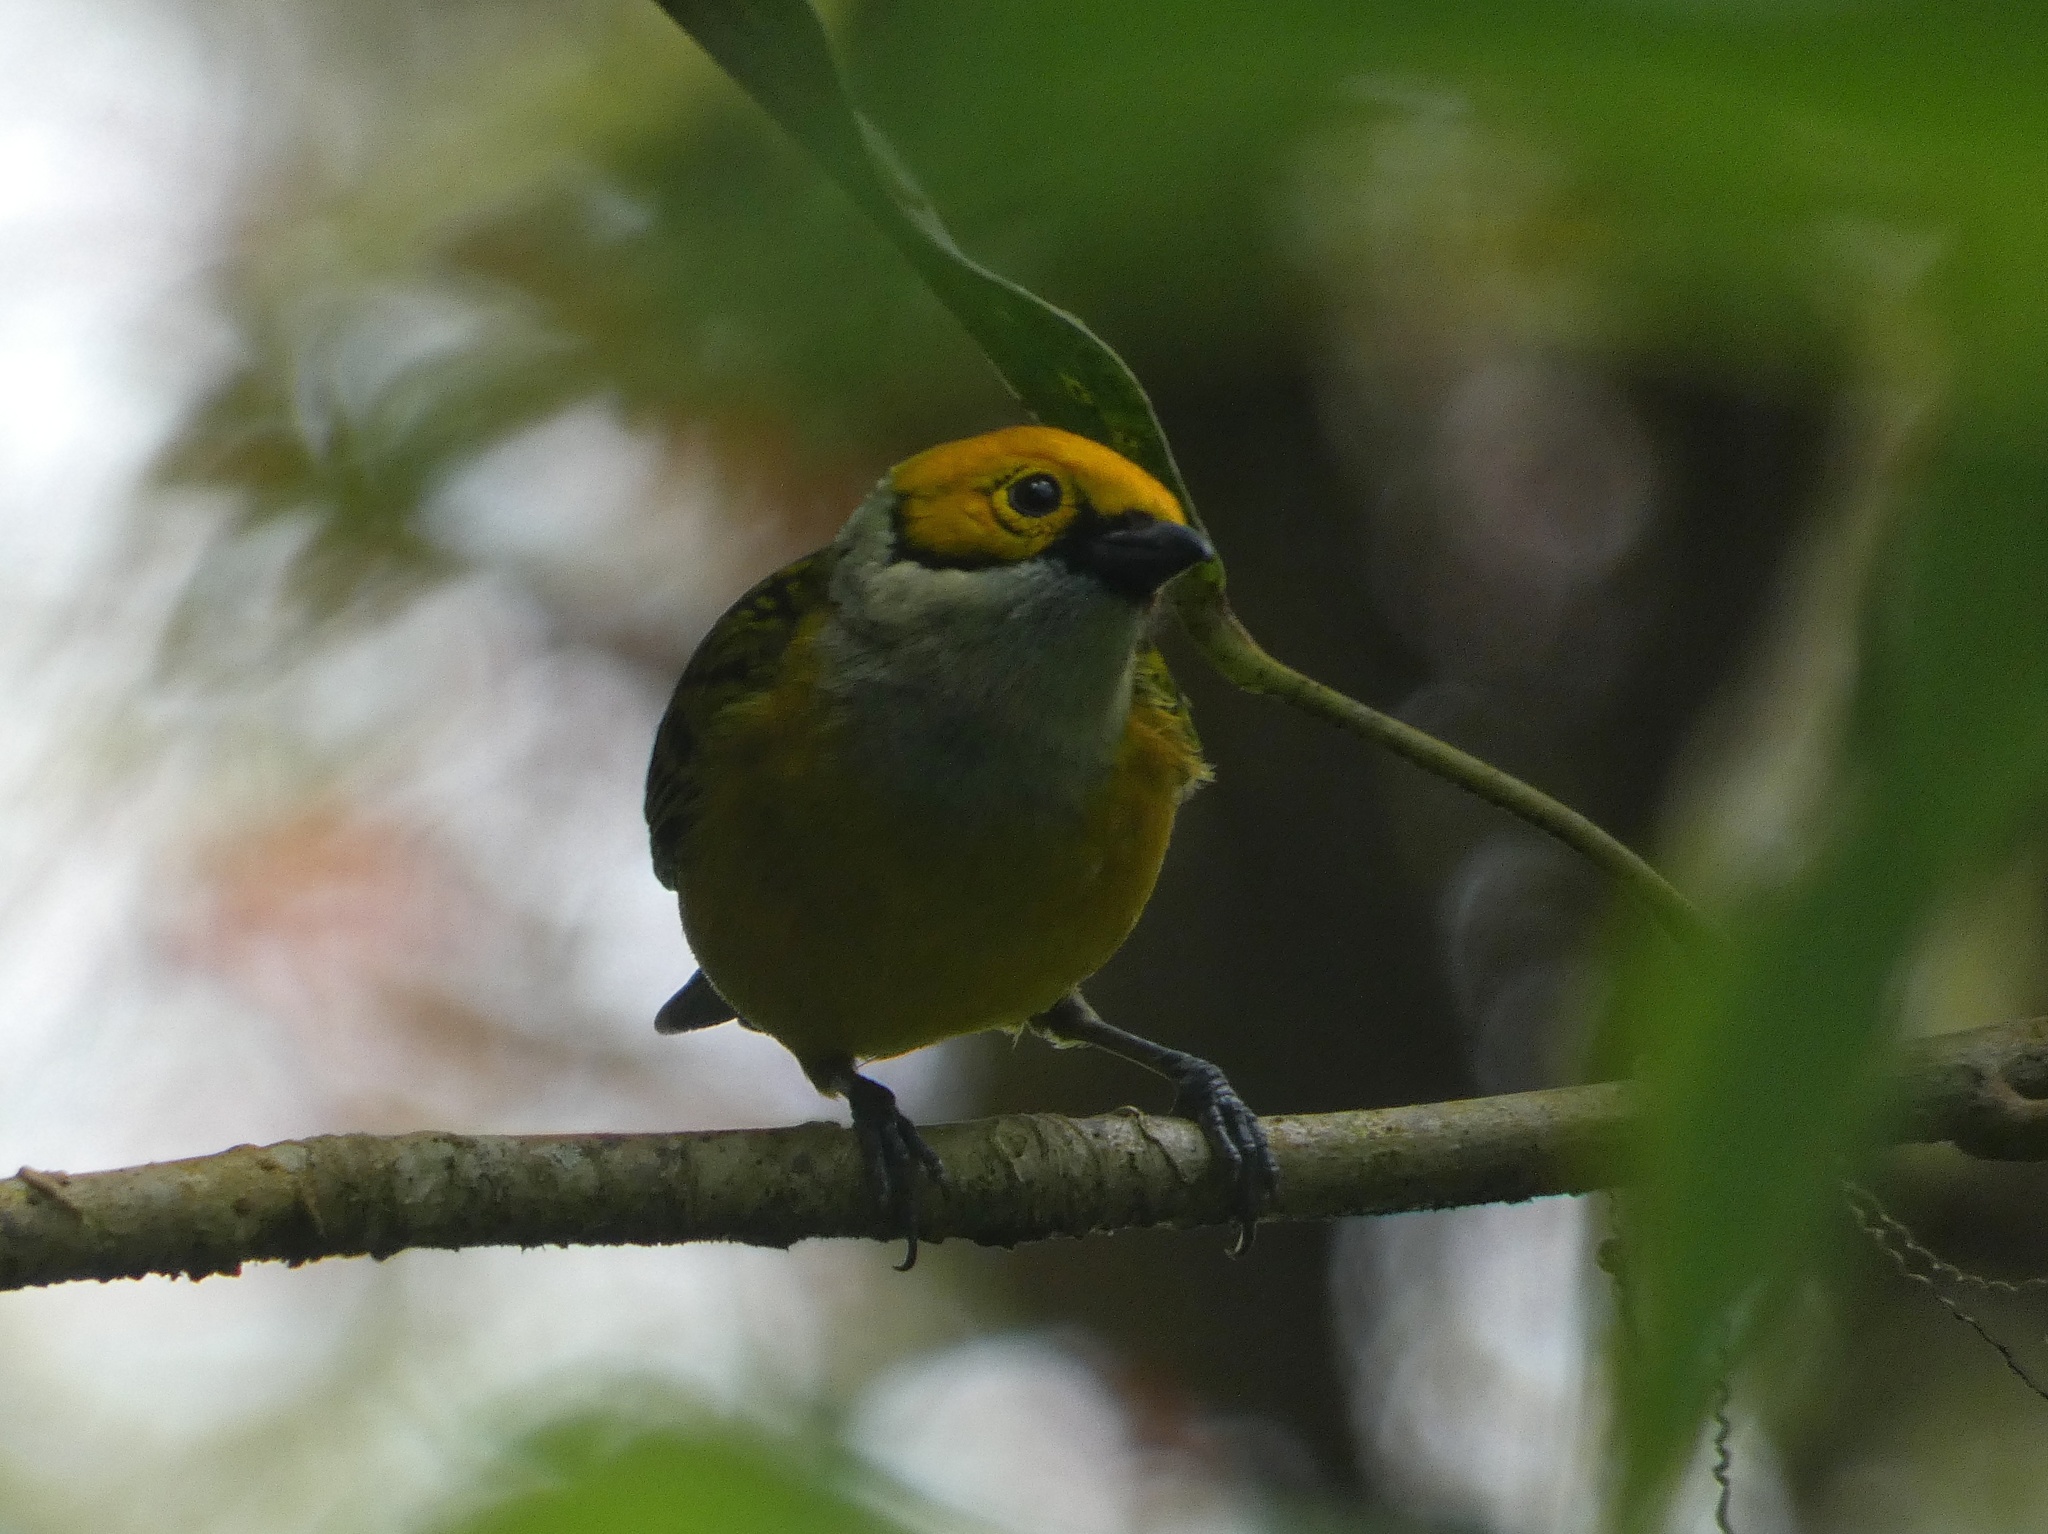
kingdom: Animalia
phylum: Chordata
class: Aves
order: Passeriformes
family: Thraupidae
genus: Tangara
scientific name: Tangara icterocephala
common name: Silver-throated tanager
